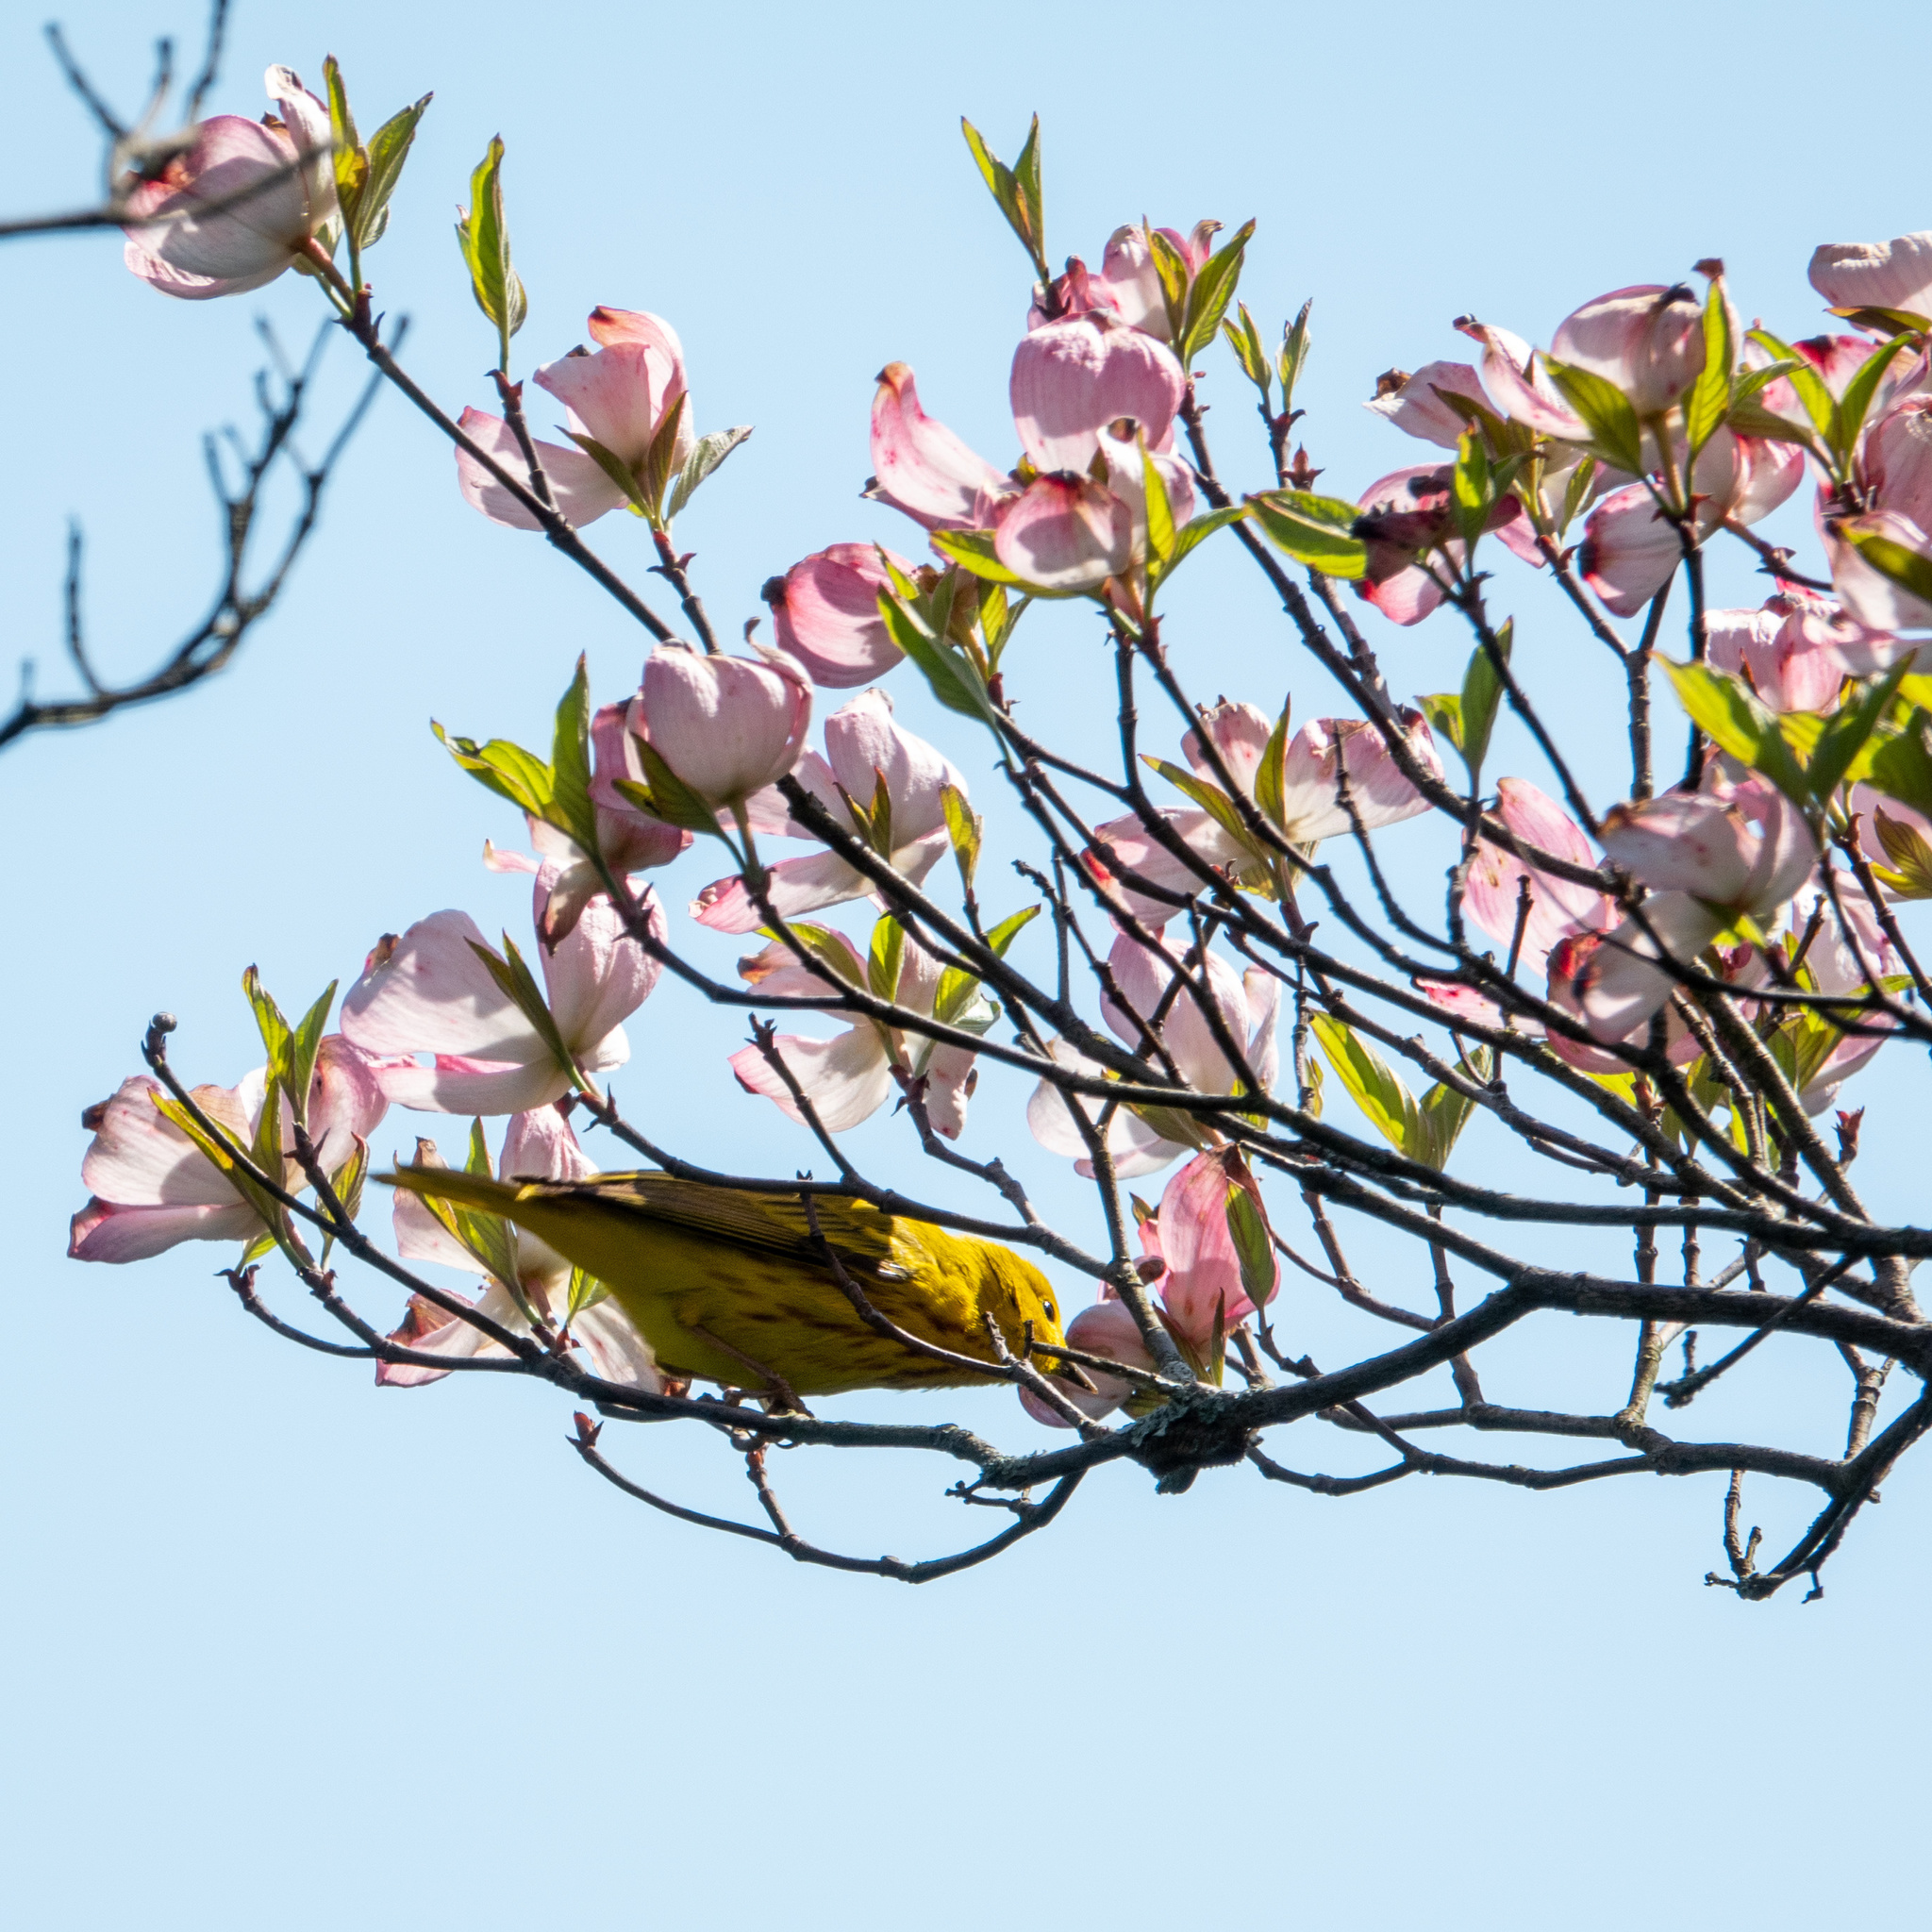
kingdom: Animalia
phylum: Chordata
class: Aves
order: Passeriformes
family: Parulidae
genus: Setophaga
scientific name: Setophaga petechia
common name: Yellow warbler
